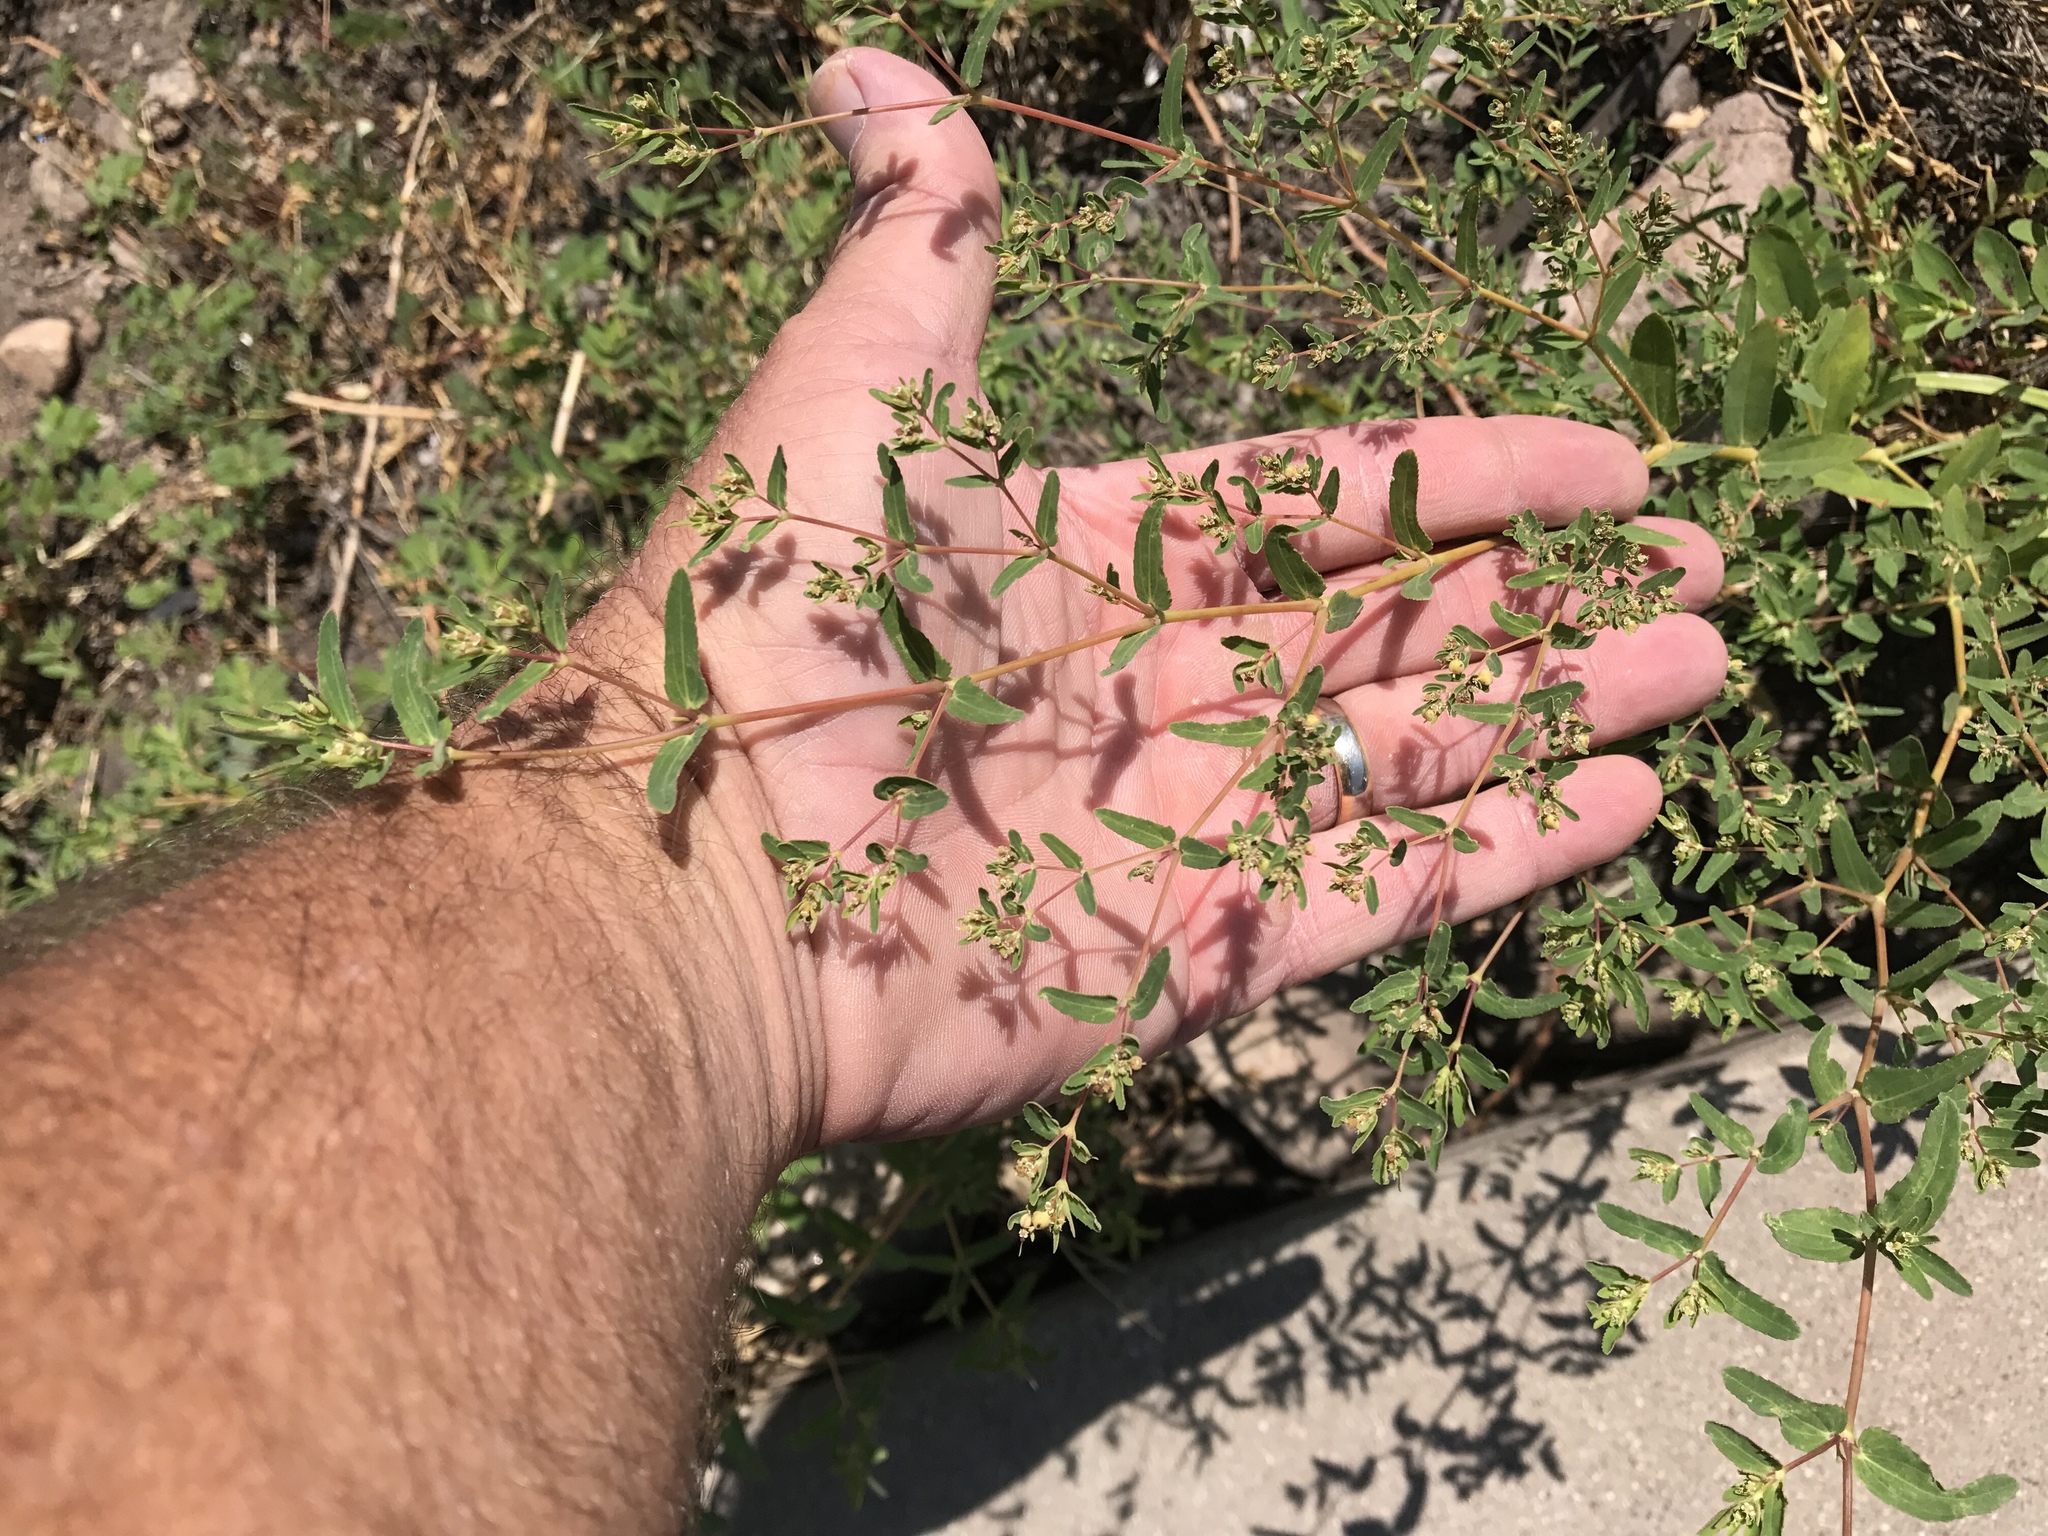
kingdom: Plantae
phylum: Tracheophyta
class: Magnoliopsida
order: Malpighiales
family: Euphorbiaceae
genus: Euphorbia
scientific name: Euphorbia hyssopifolia
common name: Hyssopleaf sandmat
